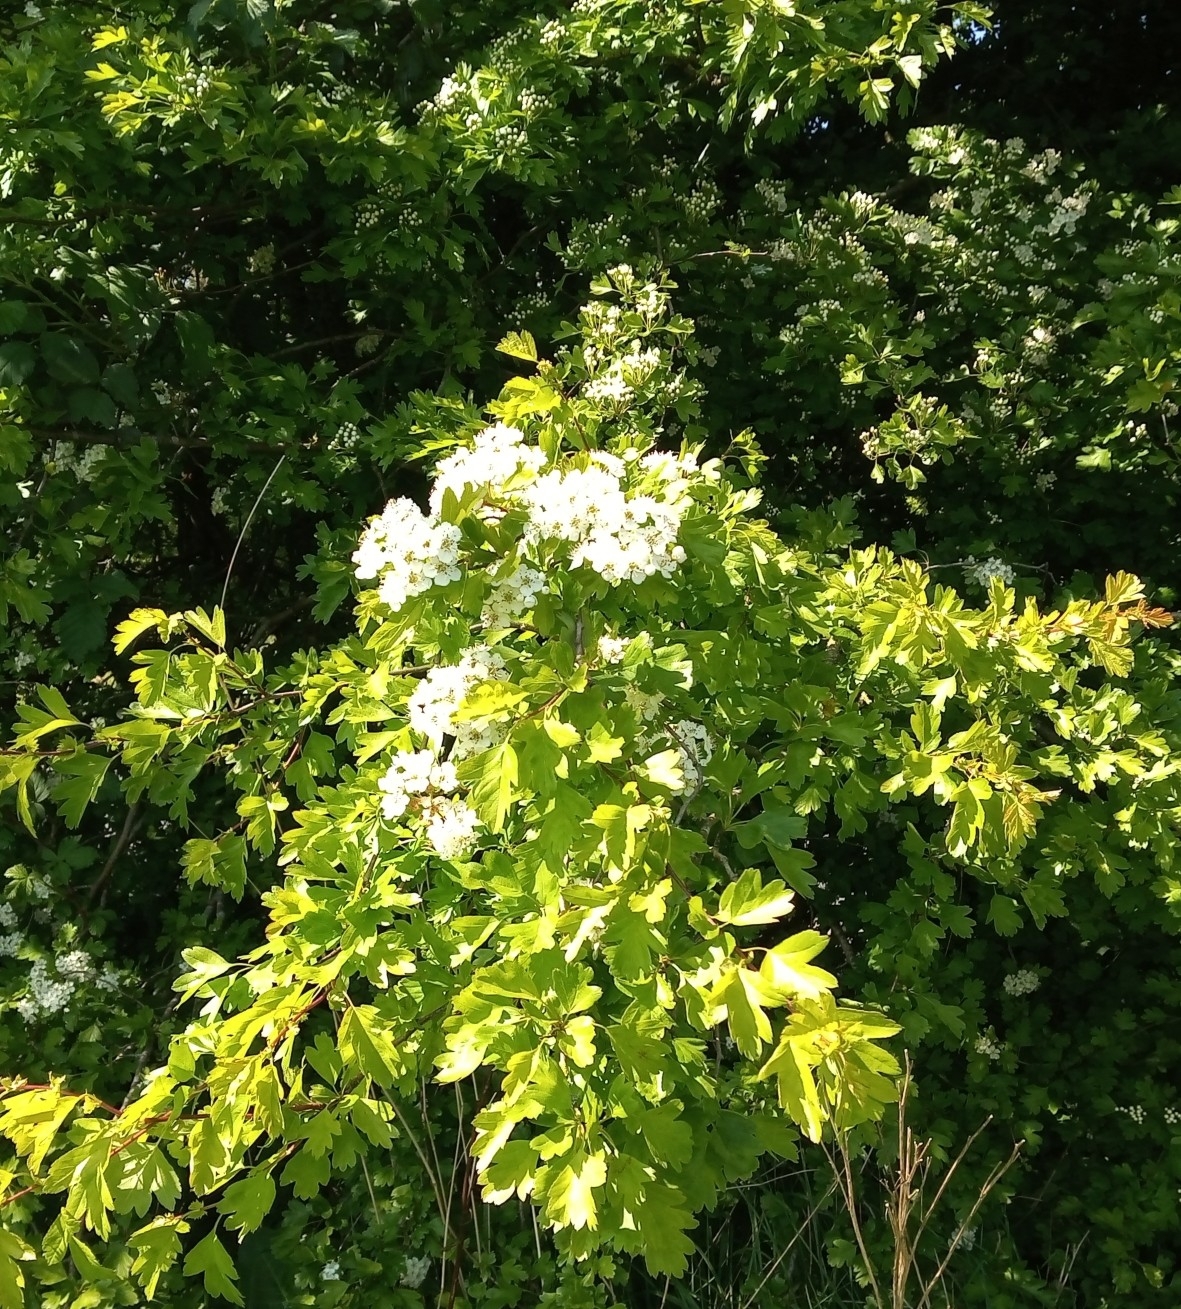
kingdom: Plantae
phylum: Tracheophyta
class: Magnoliopsida
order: Rosales
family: Rosaceae
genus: Crataegus
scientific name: Crataegus monogyna
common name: Hawthorn
